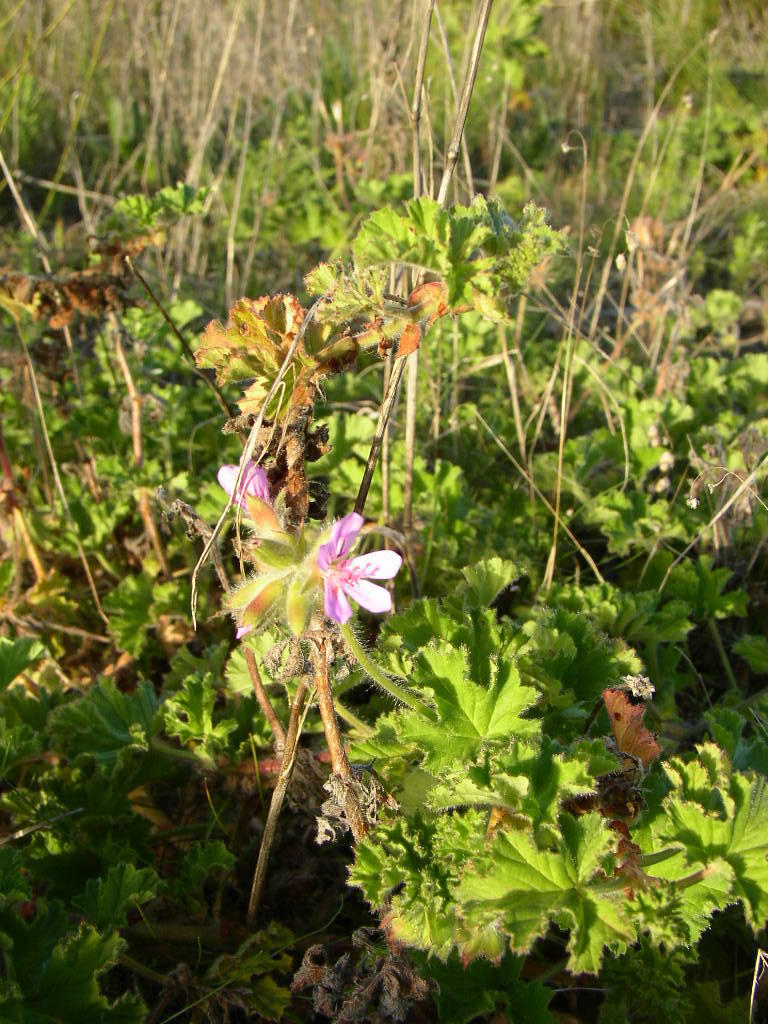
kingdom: Plantae
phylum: Tracheophyta
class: Magnoliopsida
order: Geraniales
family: Geraniaceae
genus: Pelargonium
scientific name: Pelargonium capitatum
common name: Rose scented geranium
